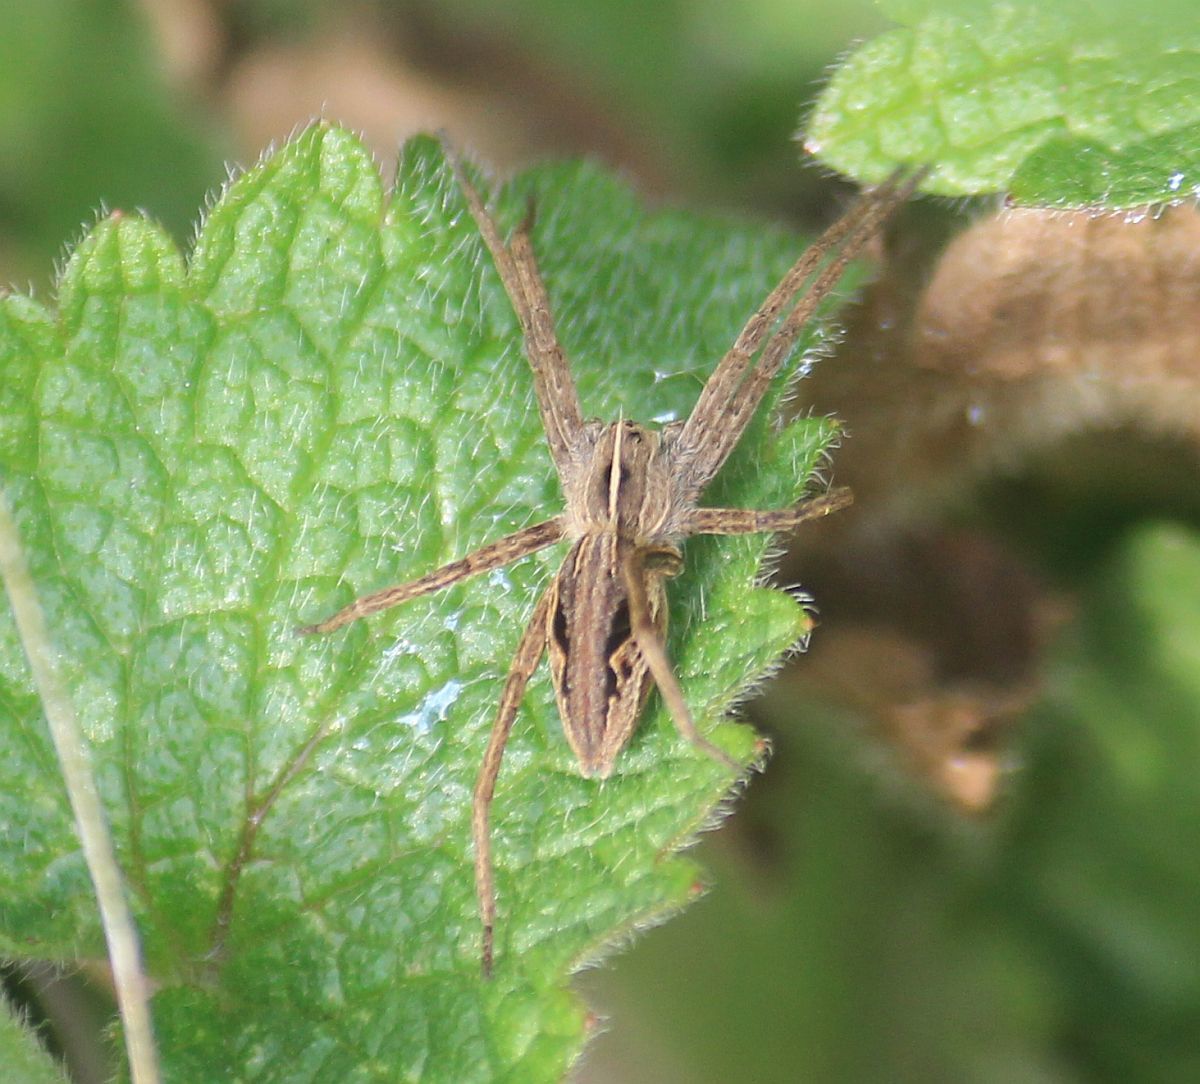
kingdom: Animalia
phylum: Arthropoda
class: Arachnida
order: Araneae
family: Pisauridae
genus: Pisaura
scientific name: Pisaura mirabilis
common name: Tent spider
